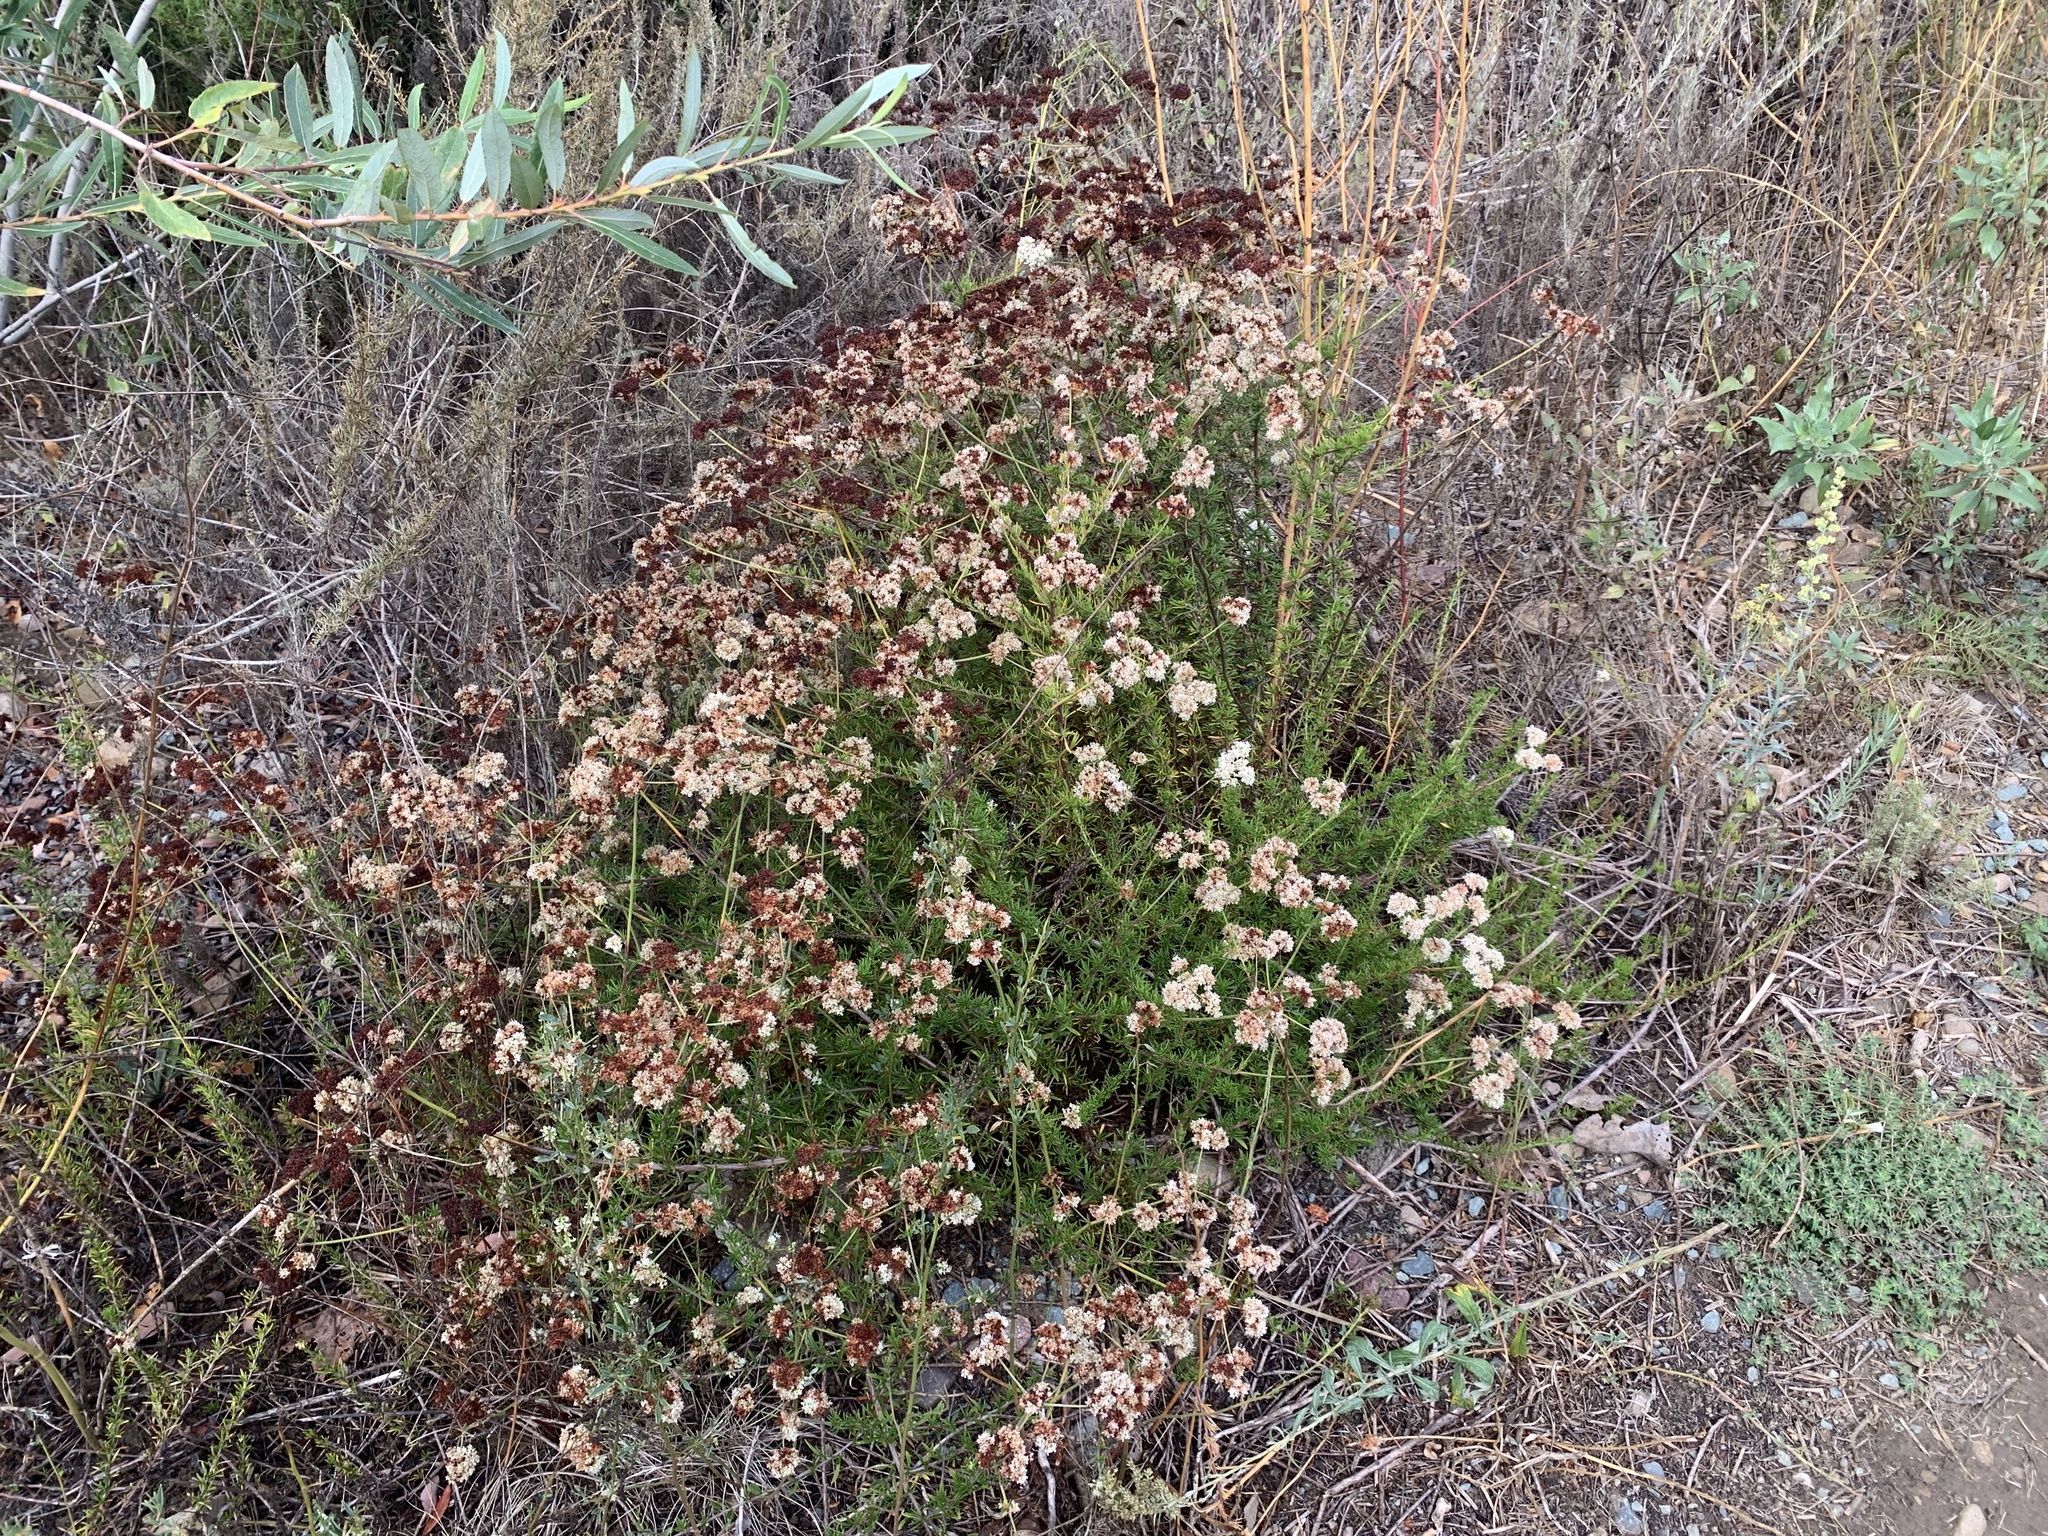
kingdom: Plantae
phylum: Tracheophyta
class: Magnoliopsida
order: Caryophyllales
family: Polygonaceae
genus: Eriogonum
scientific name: Eriogonum fasciculatum
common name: California wild buckwheat
